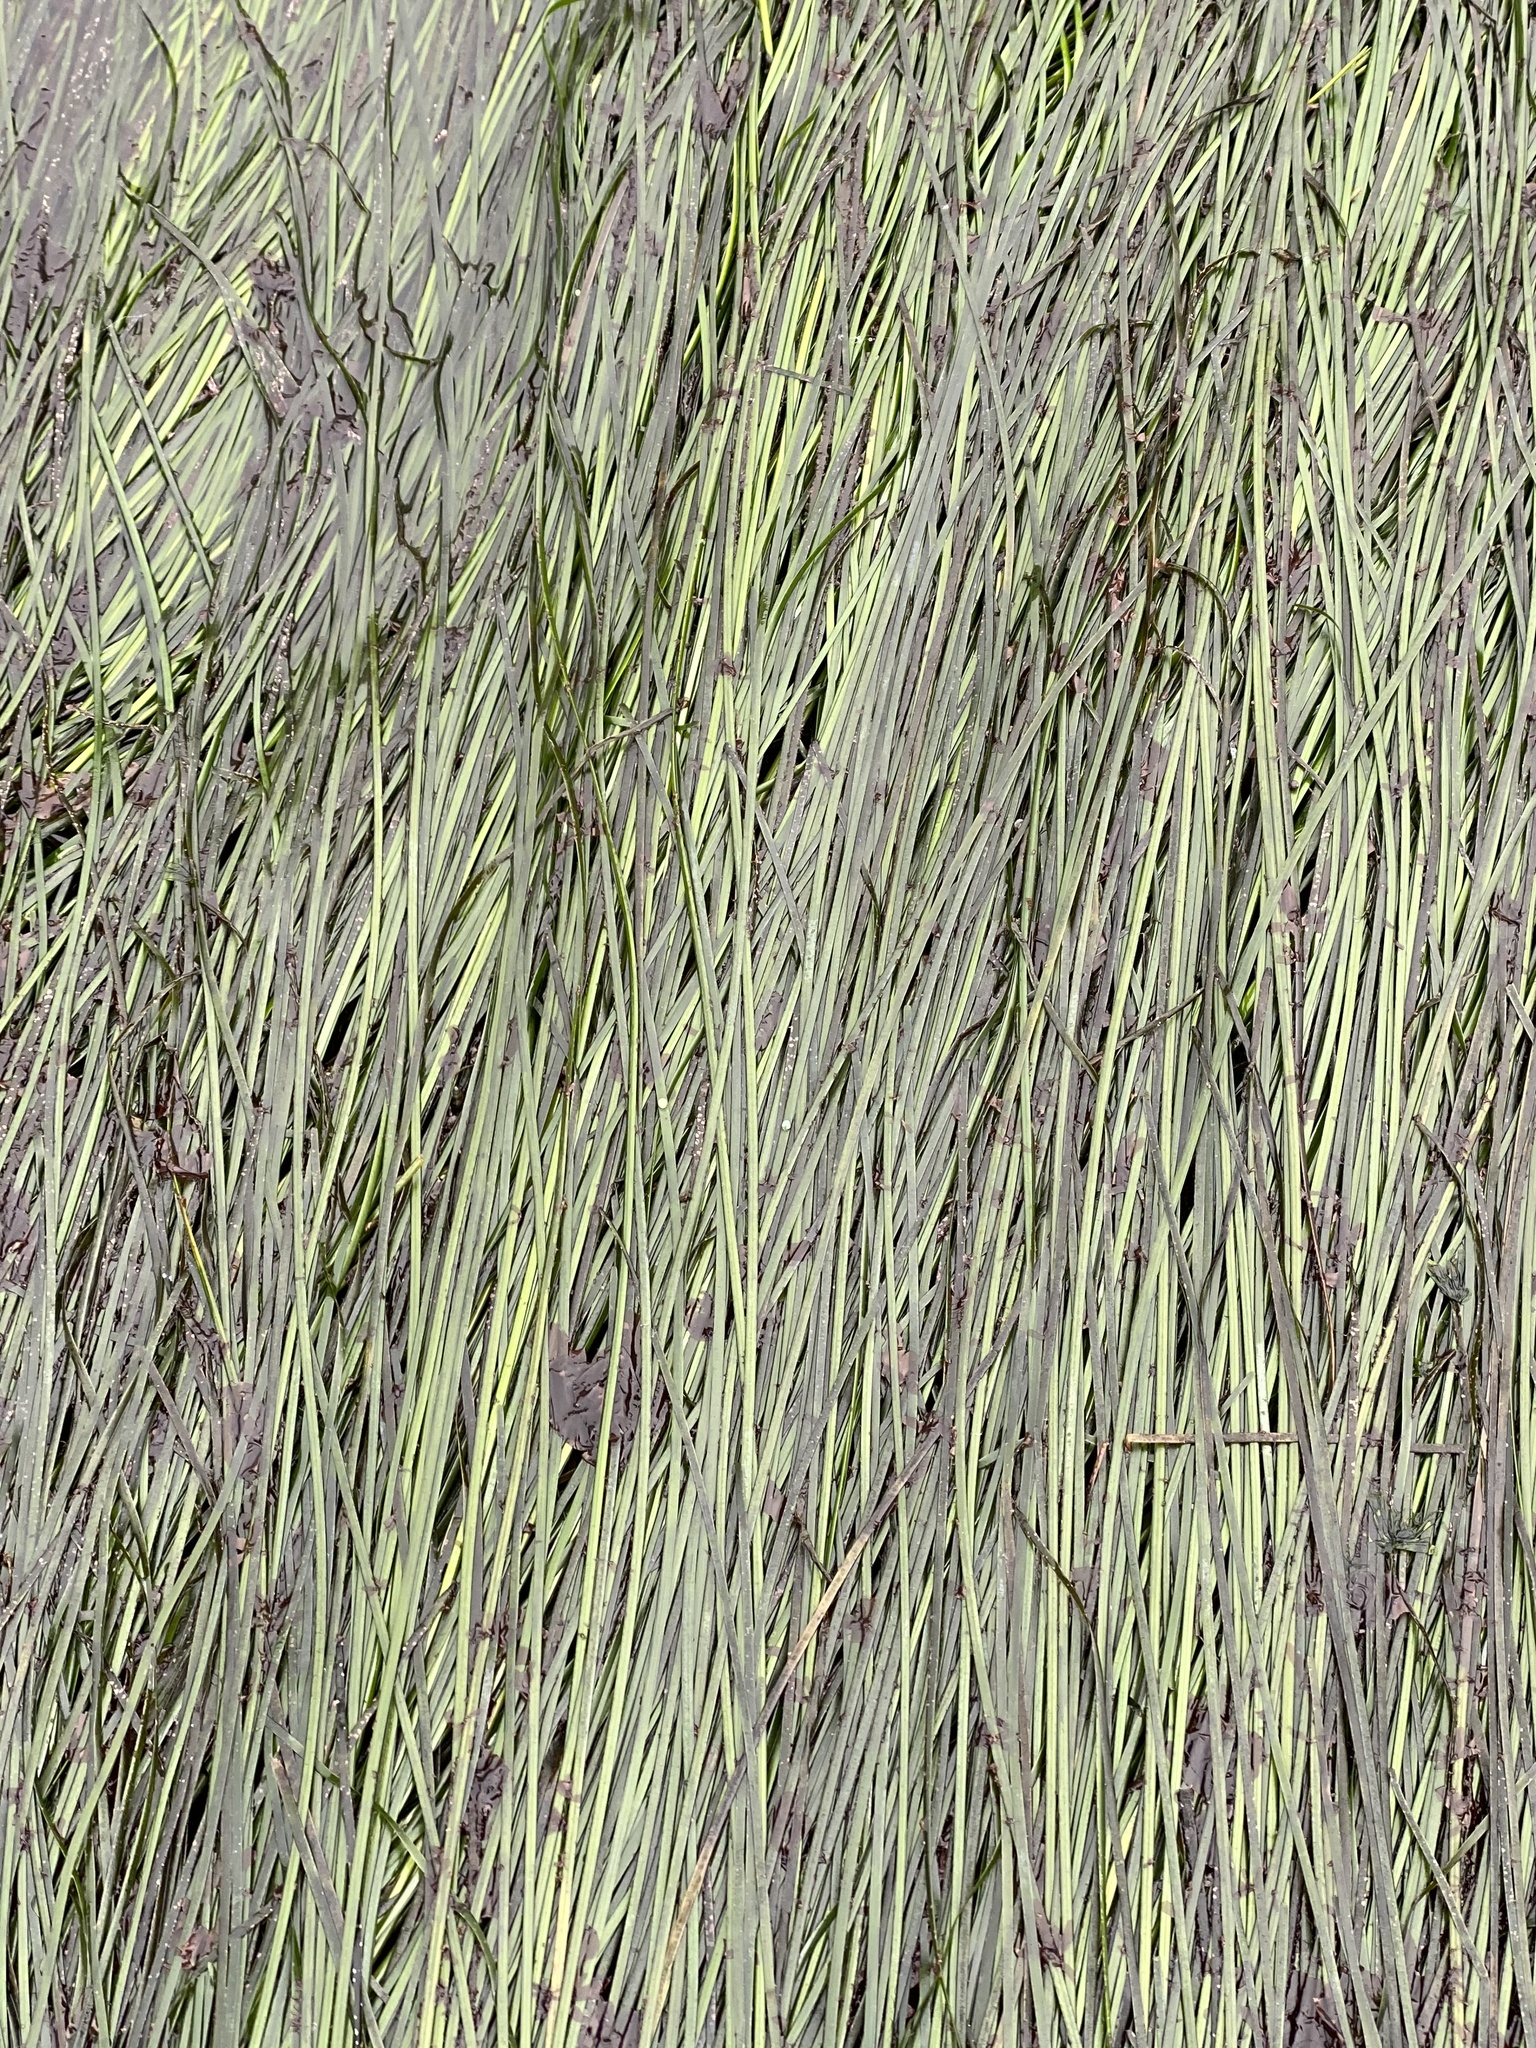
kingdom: Plantae
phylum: Tracheophyta
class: Liliopsida
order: Alismatales
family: Zosteraceae
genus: Phyllospadix
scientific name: Phyllospadix scouleri
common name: Species code: ps
